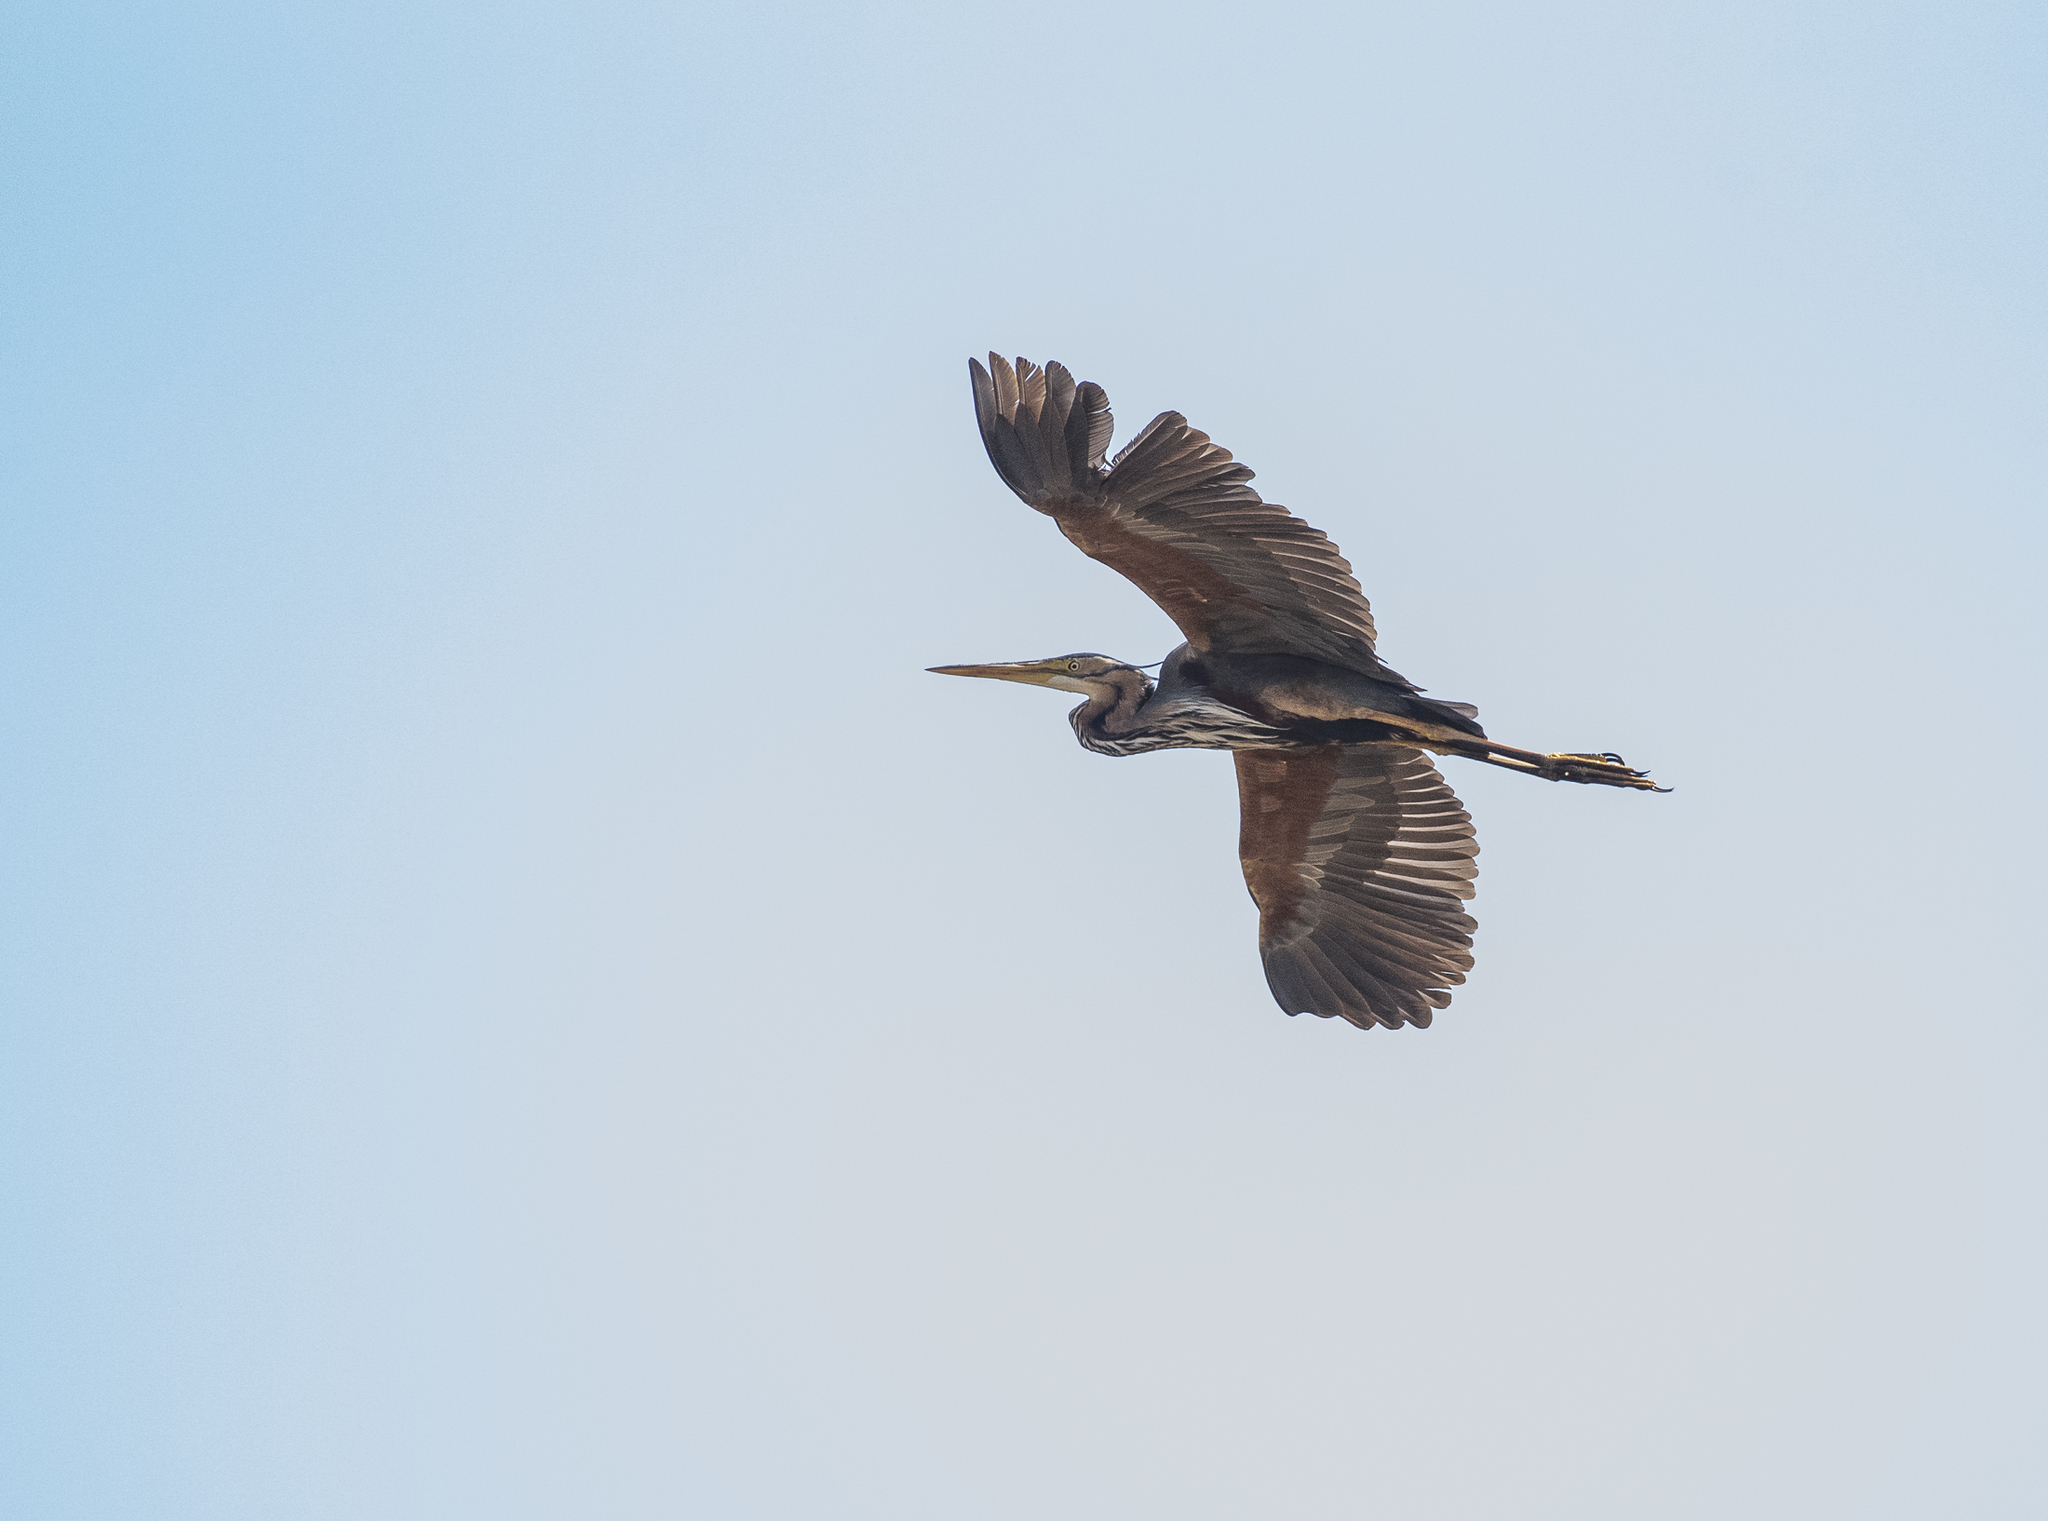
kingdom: Animalia
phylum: Chordata
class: Aves
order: Pelecaniformes
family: Ardeidae
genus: Ardea
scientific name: Ardea purpurea
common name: Purple heron
